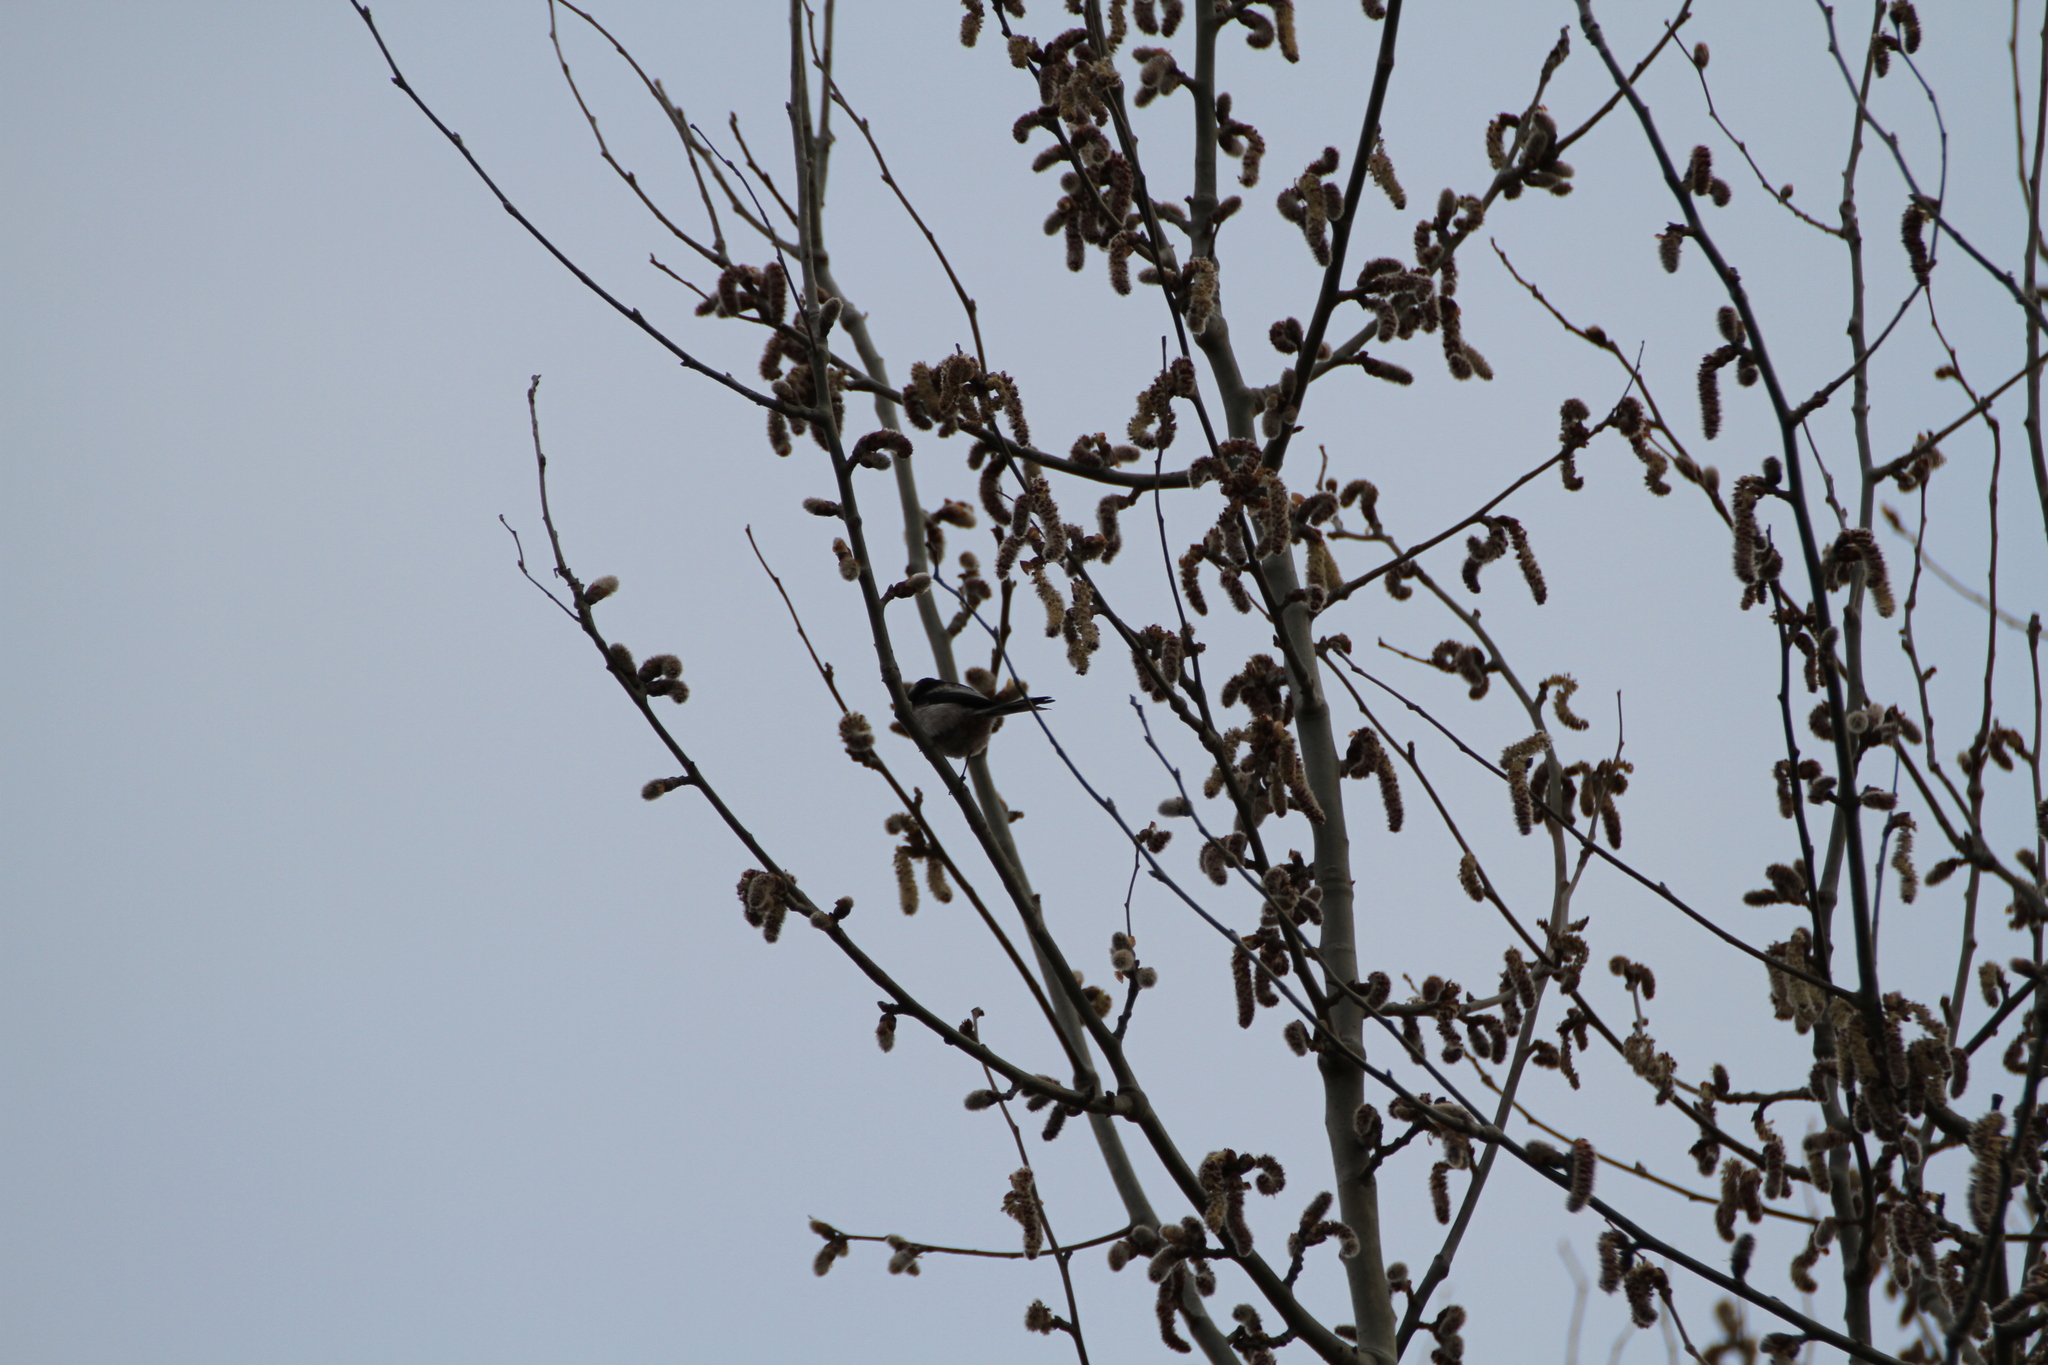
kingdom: Animalia
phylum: Chordata
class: Aves
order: Passeriformes
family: Aegithalidae
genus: Aegithalos
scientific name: Aegithalos caudatus
